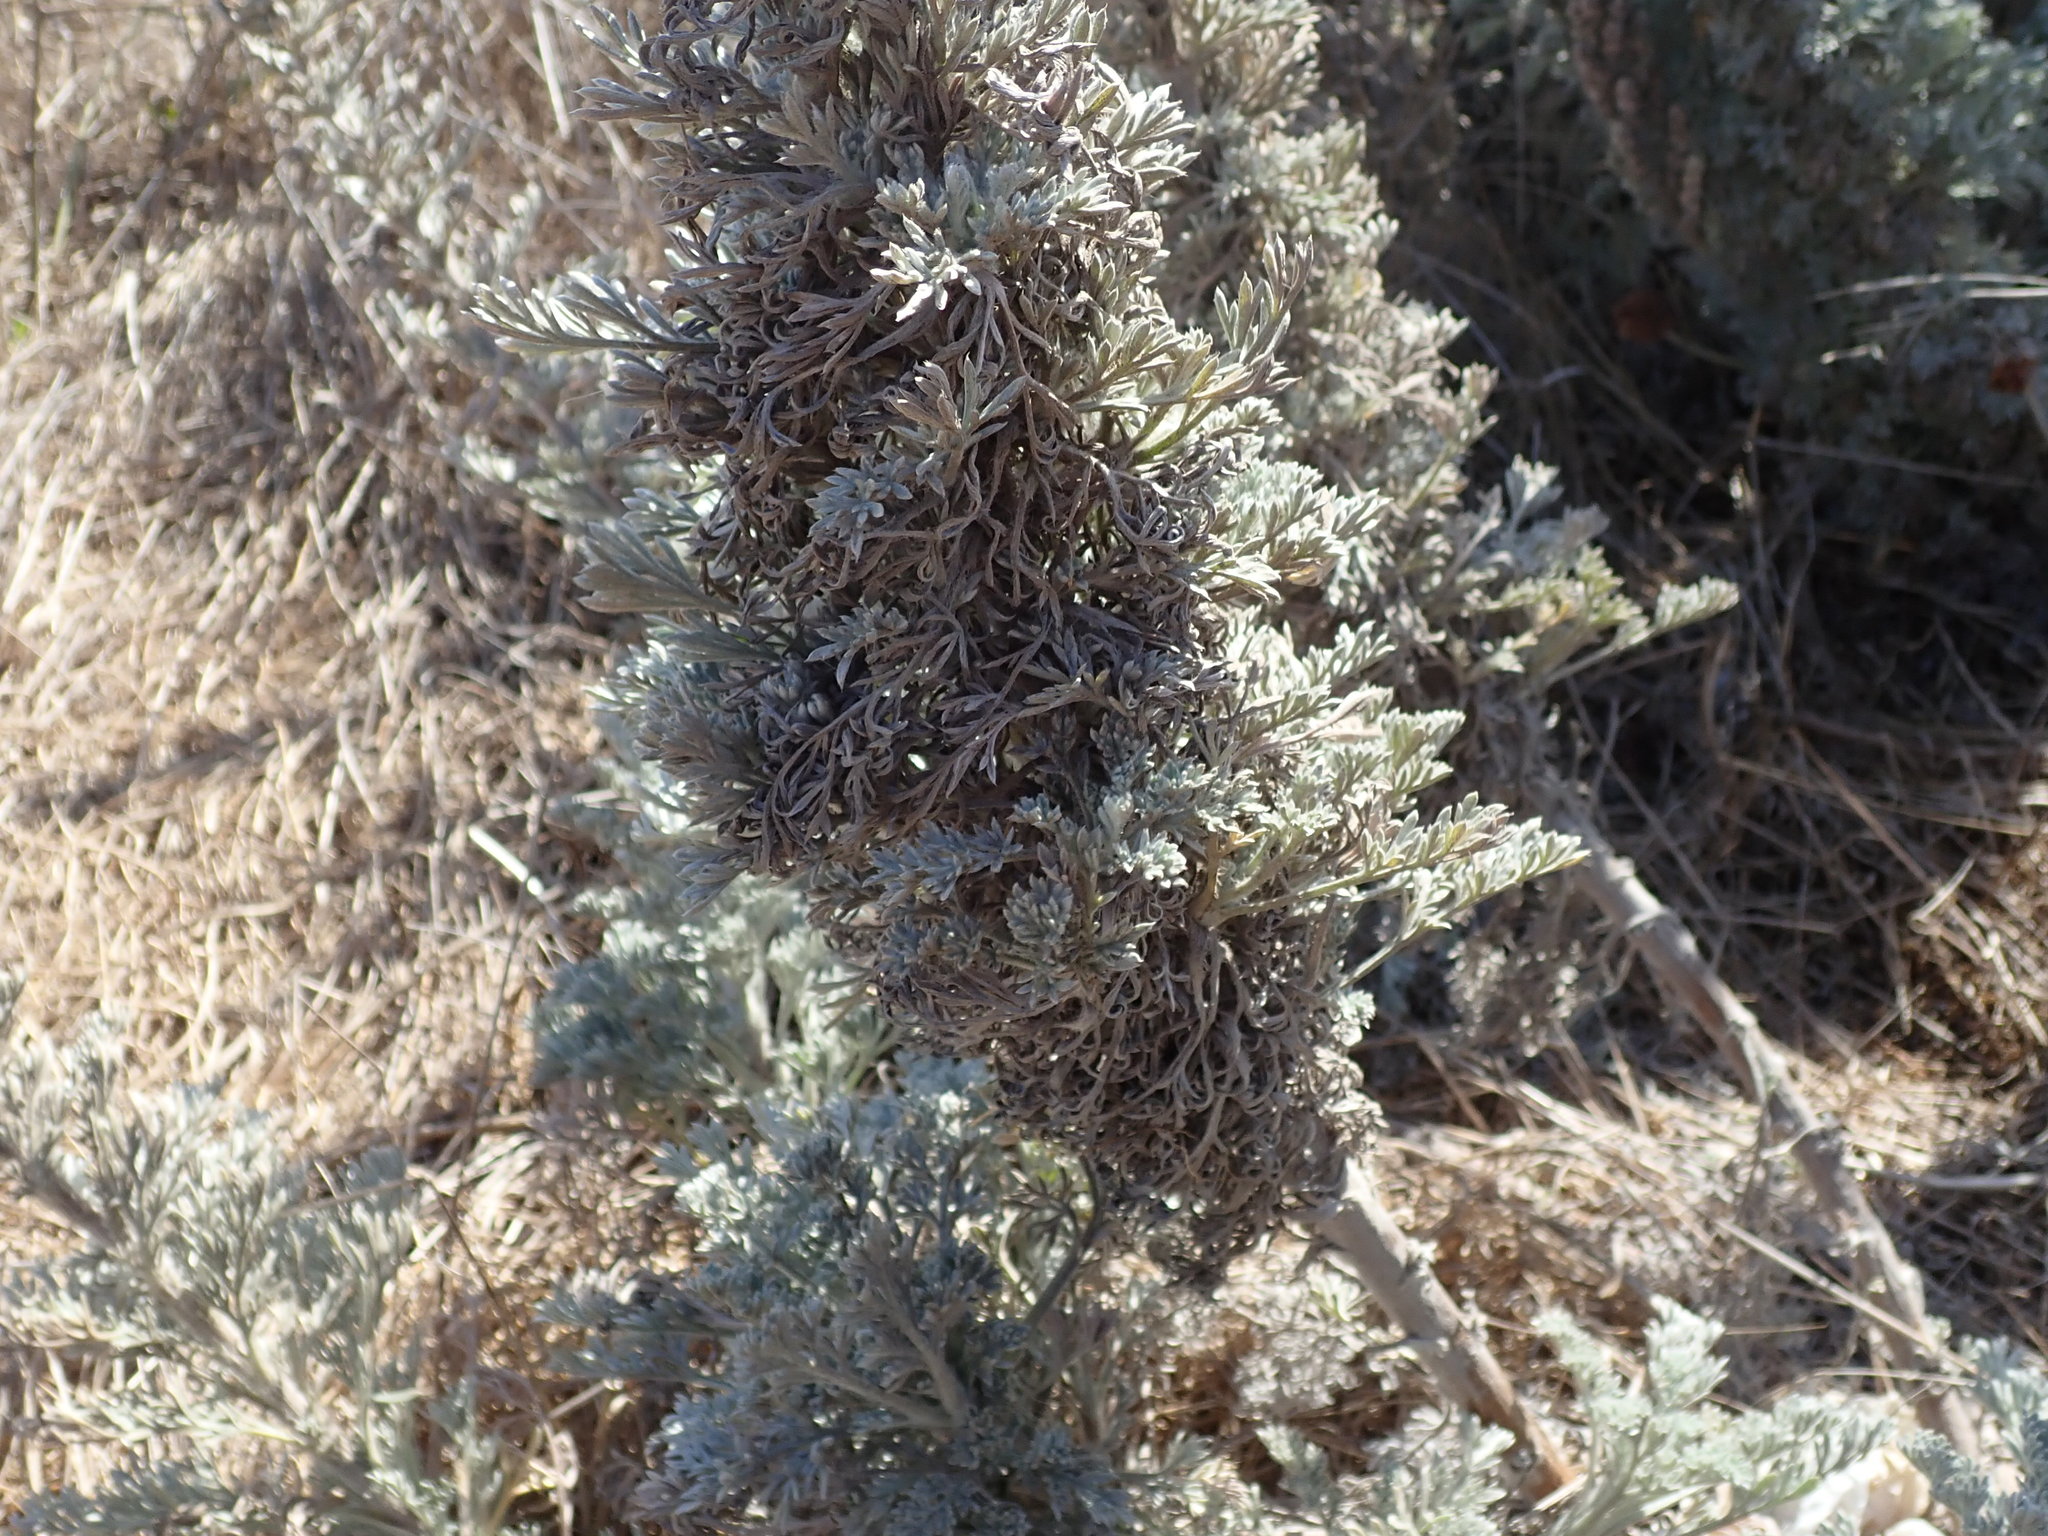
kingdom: Plantae
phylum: Tracheophyta
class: Magnoliopsida
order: Asterales
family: Asteraceae
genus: Artemisia
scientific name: Artemisia pycnocephala
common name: Coastal sagewort
